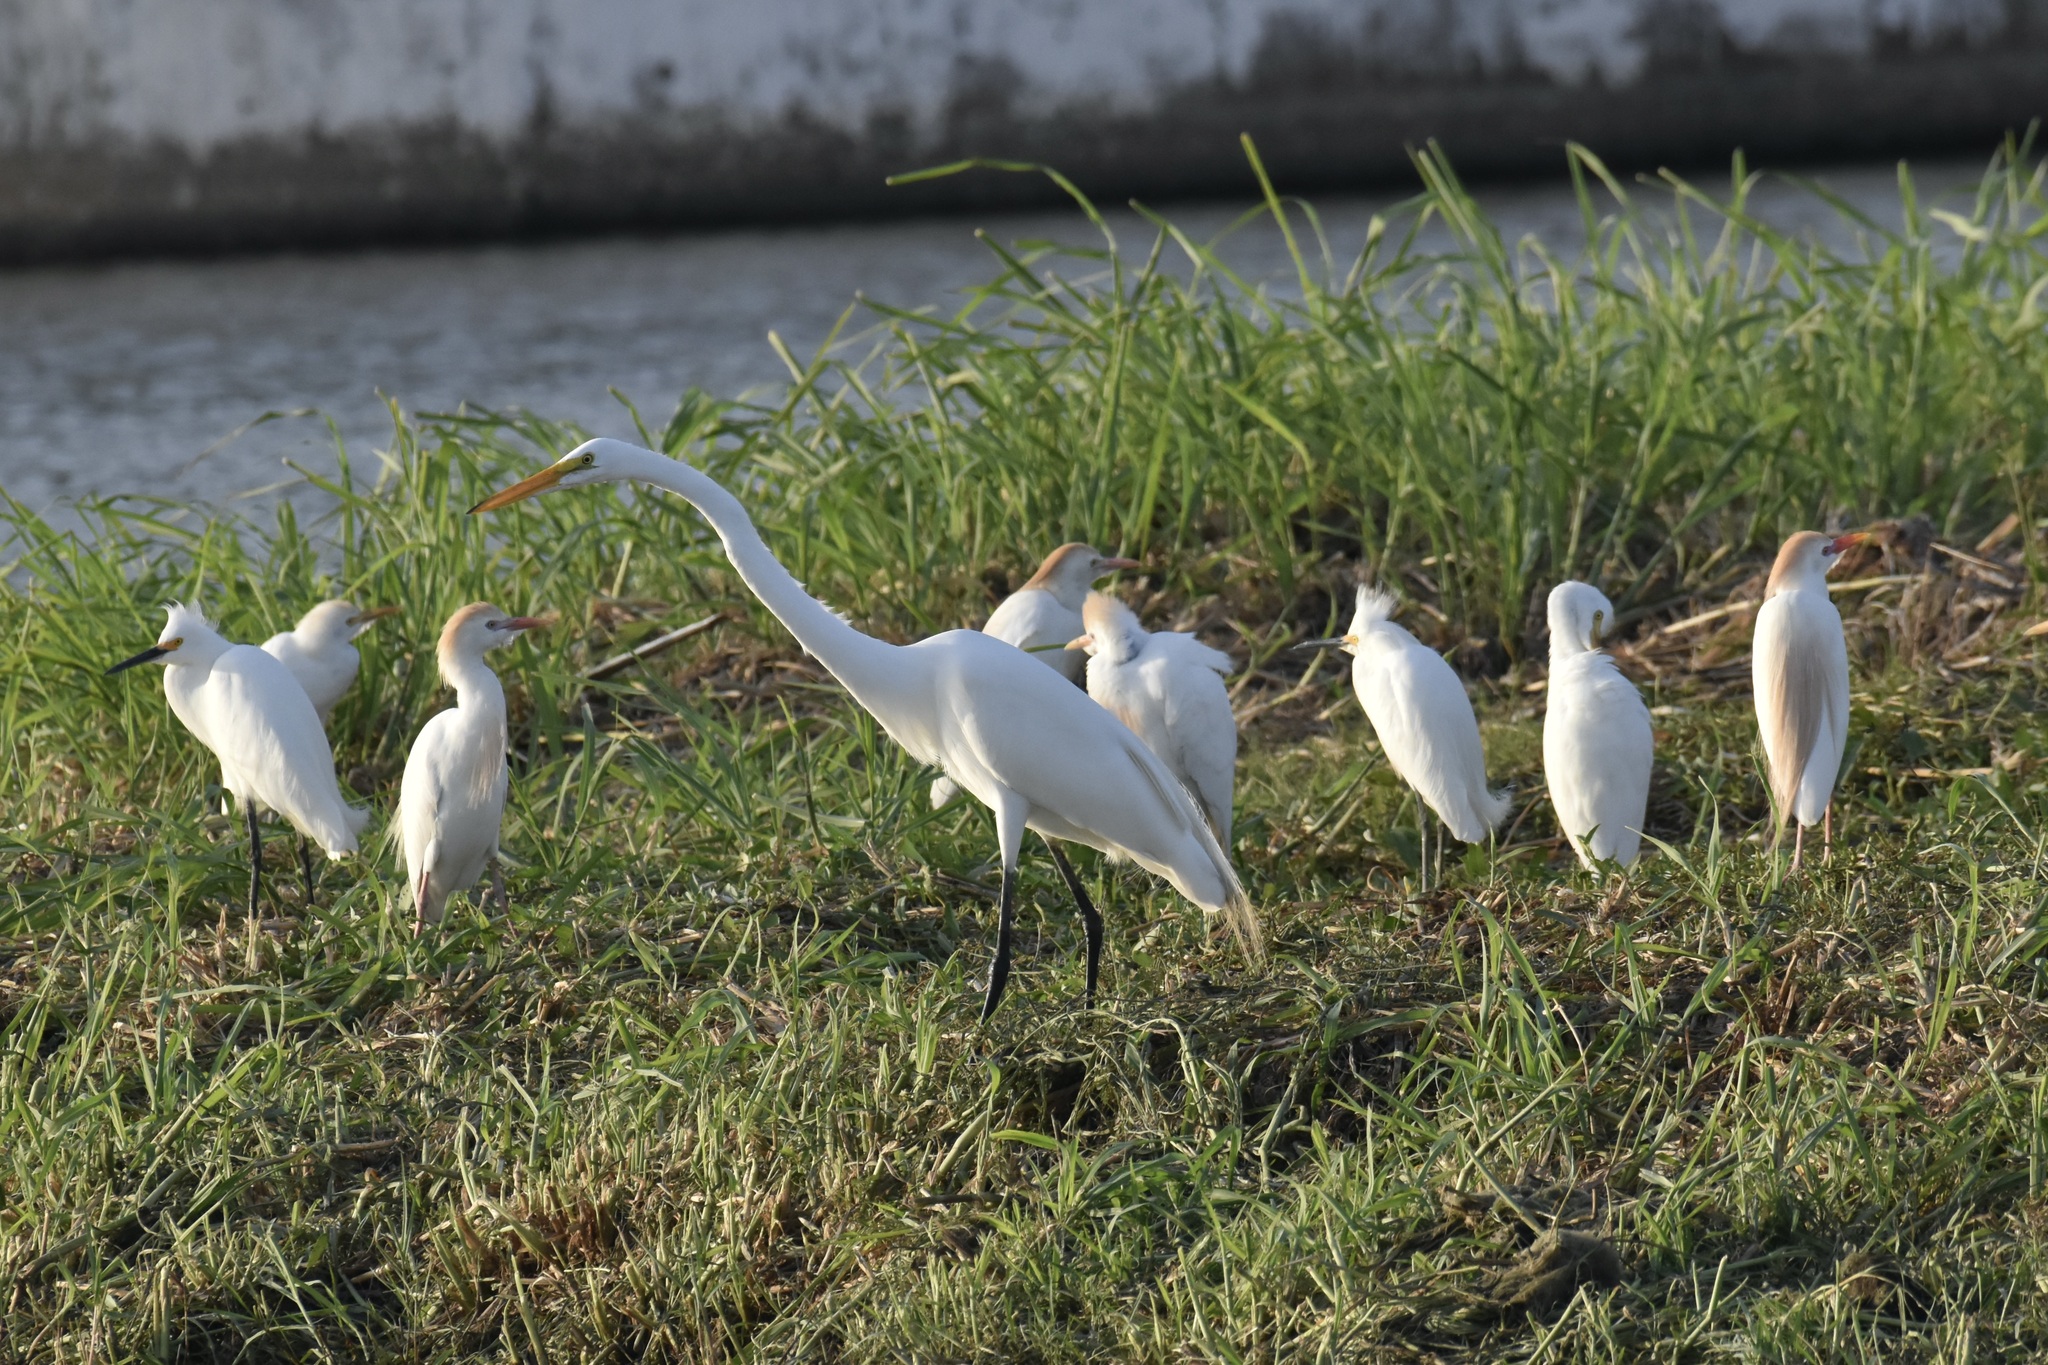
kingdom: Animalia
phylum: Chordata
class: Aves
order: Pelecaniformes
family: Ardeidae
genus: Ardea
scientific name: Ardea alba
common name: Great egret
